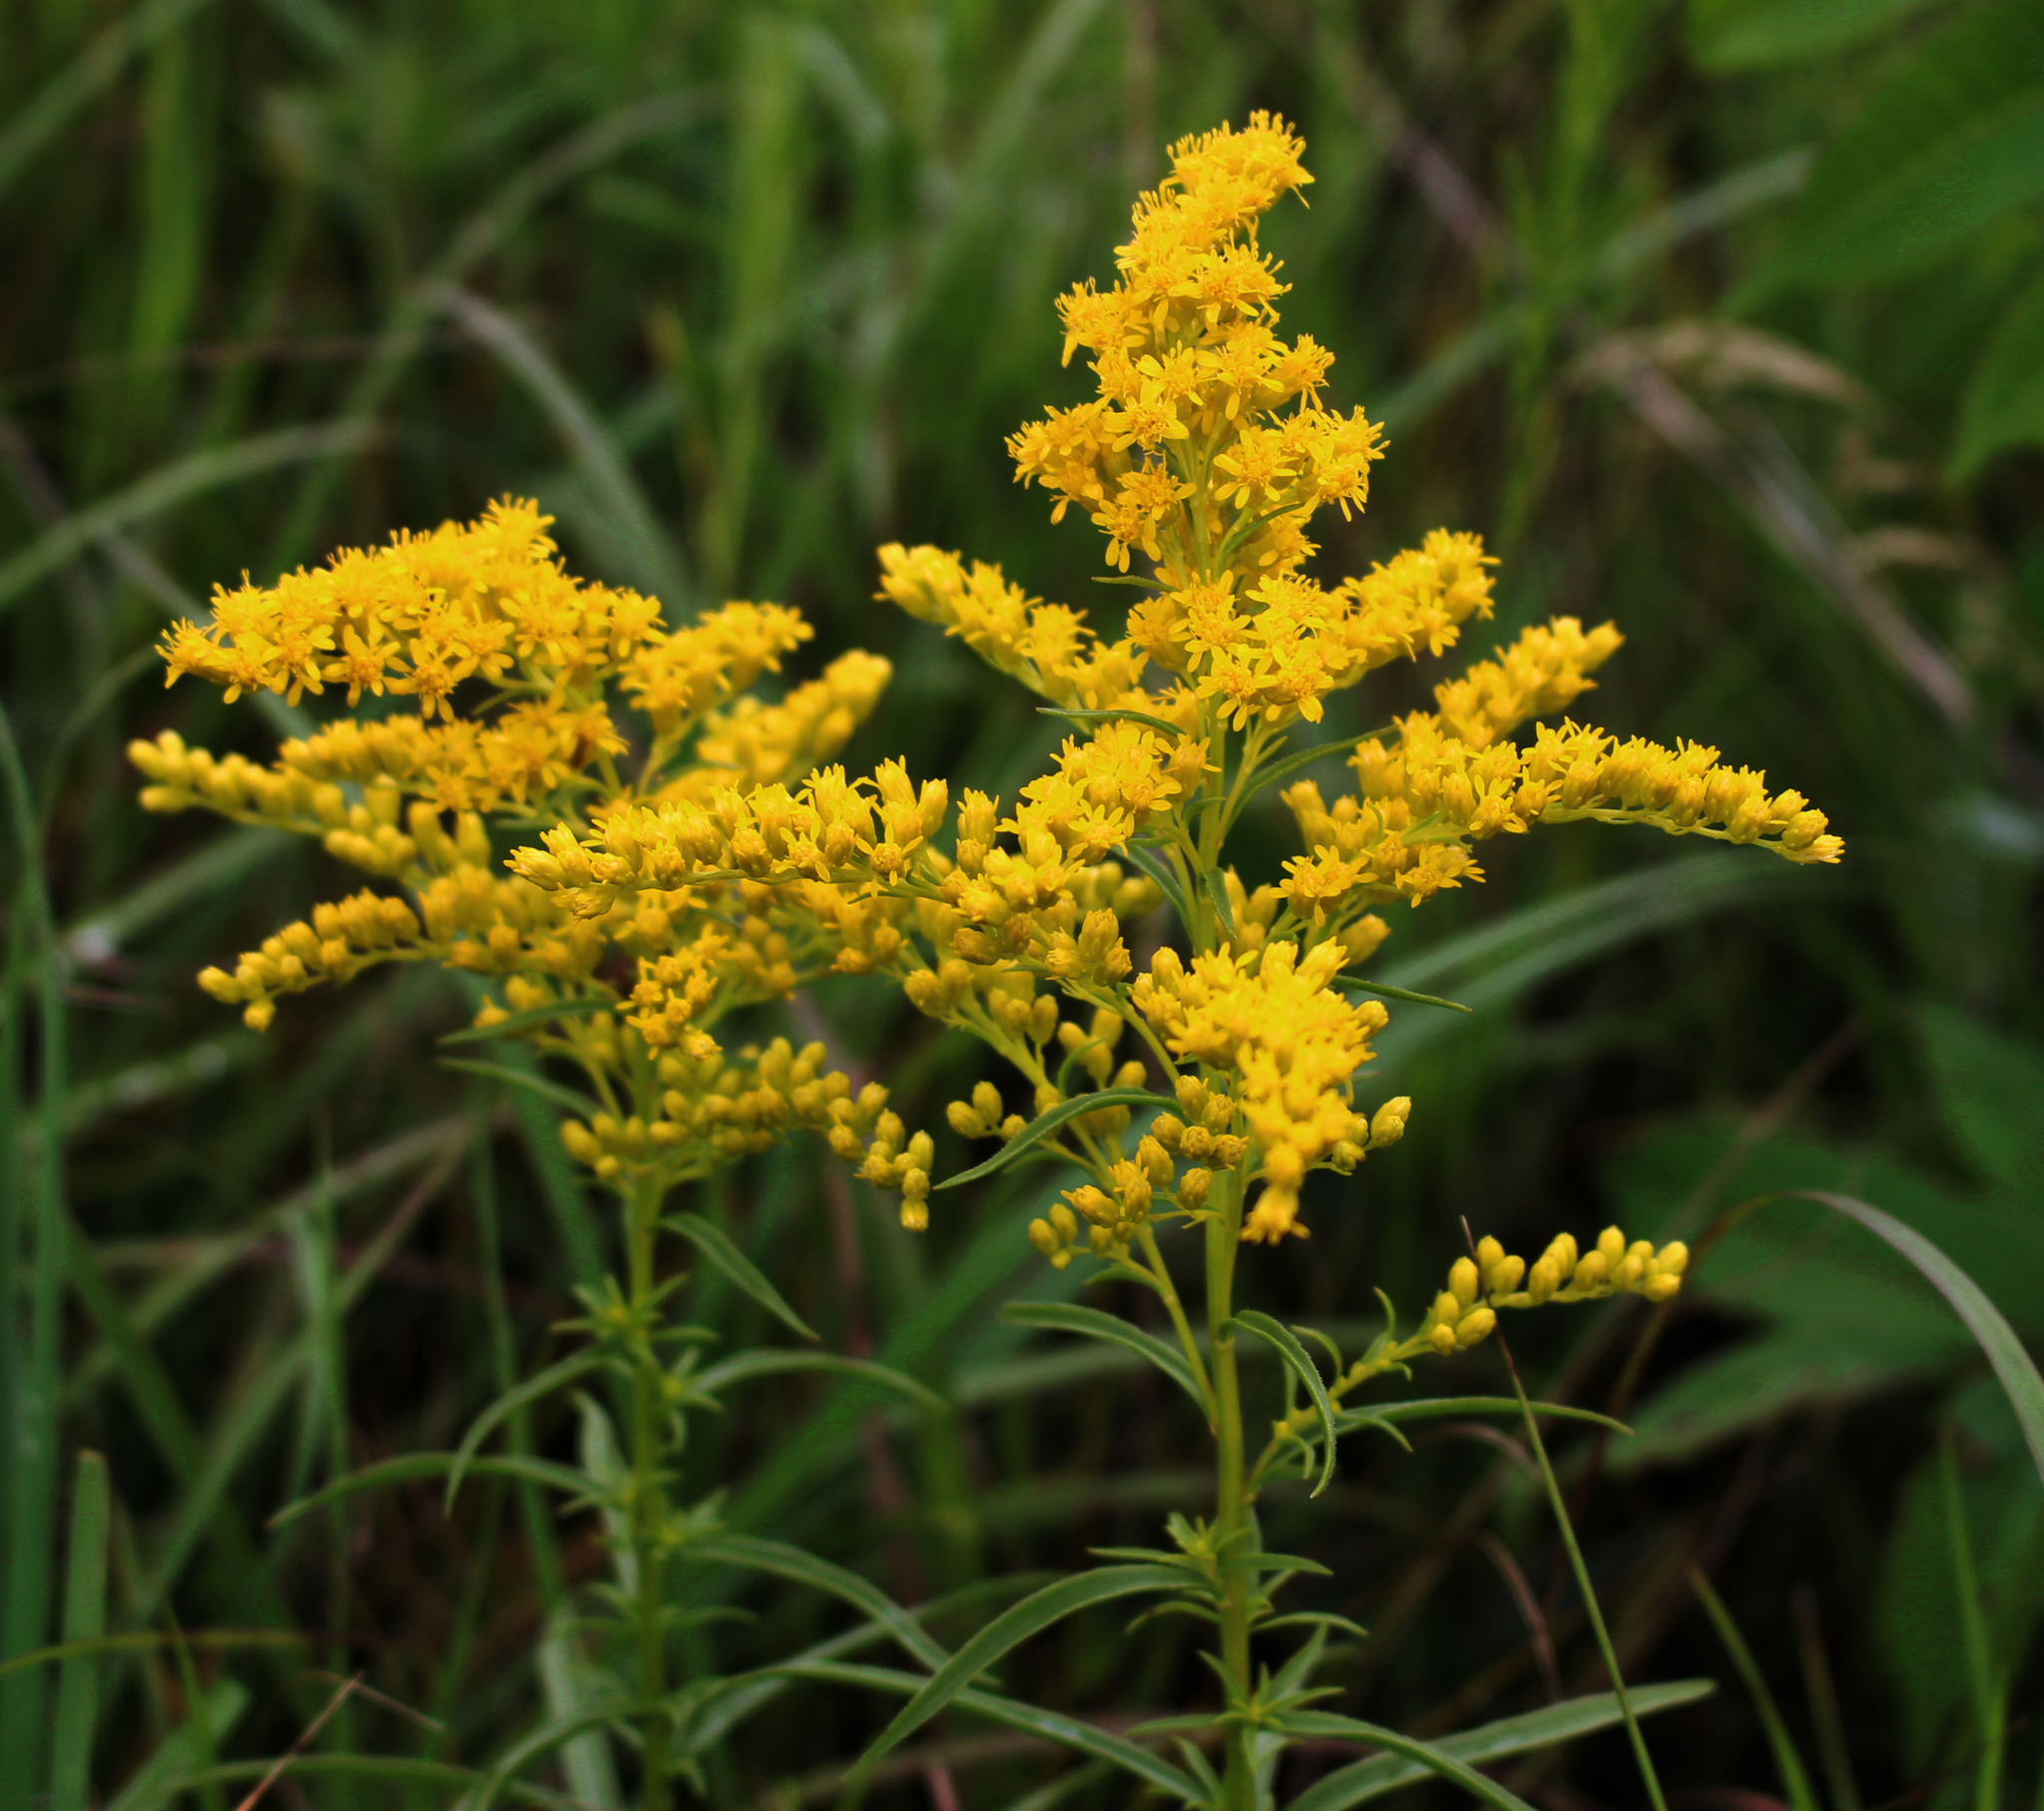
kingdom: Plantae
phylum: Tracheophyta
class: Magnoliopsida
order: Asterales
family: Asteraceae
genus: Solidago
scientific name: Solidago juncea
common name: Early goldenrod
